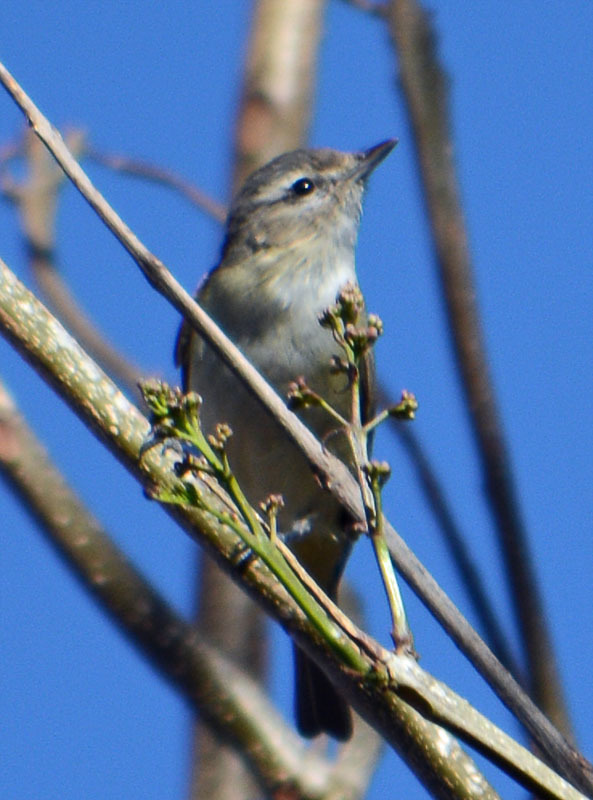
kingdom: Animalia
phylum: Chordata
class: Aves
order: Passeriformes
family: Vireonidae
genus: Vireo
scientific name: Vireo gilvus
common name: Warbling vireo
